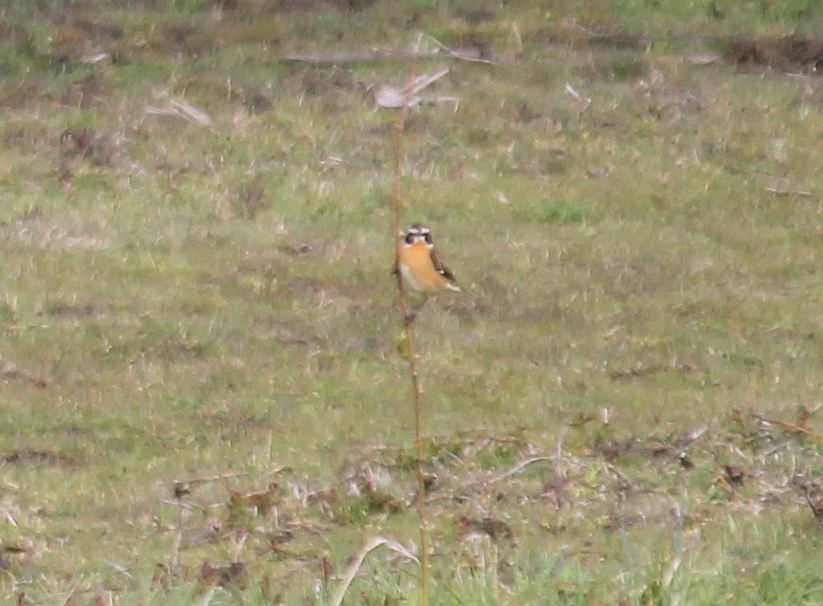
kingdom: Animalia
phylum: Chordata
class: Aves
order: Passeriformes
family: Muscicapidae
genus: Saxicola
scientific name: Saxicola rubetra
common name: Whinchat
